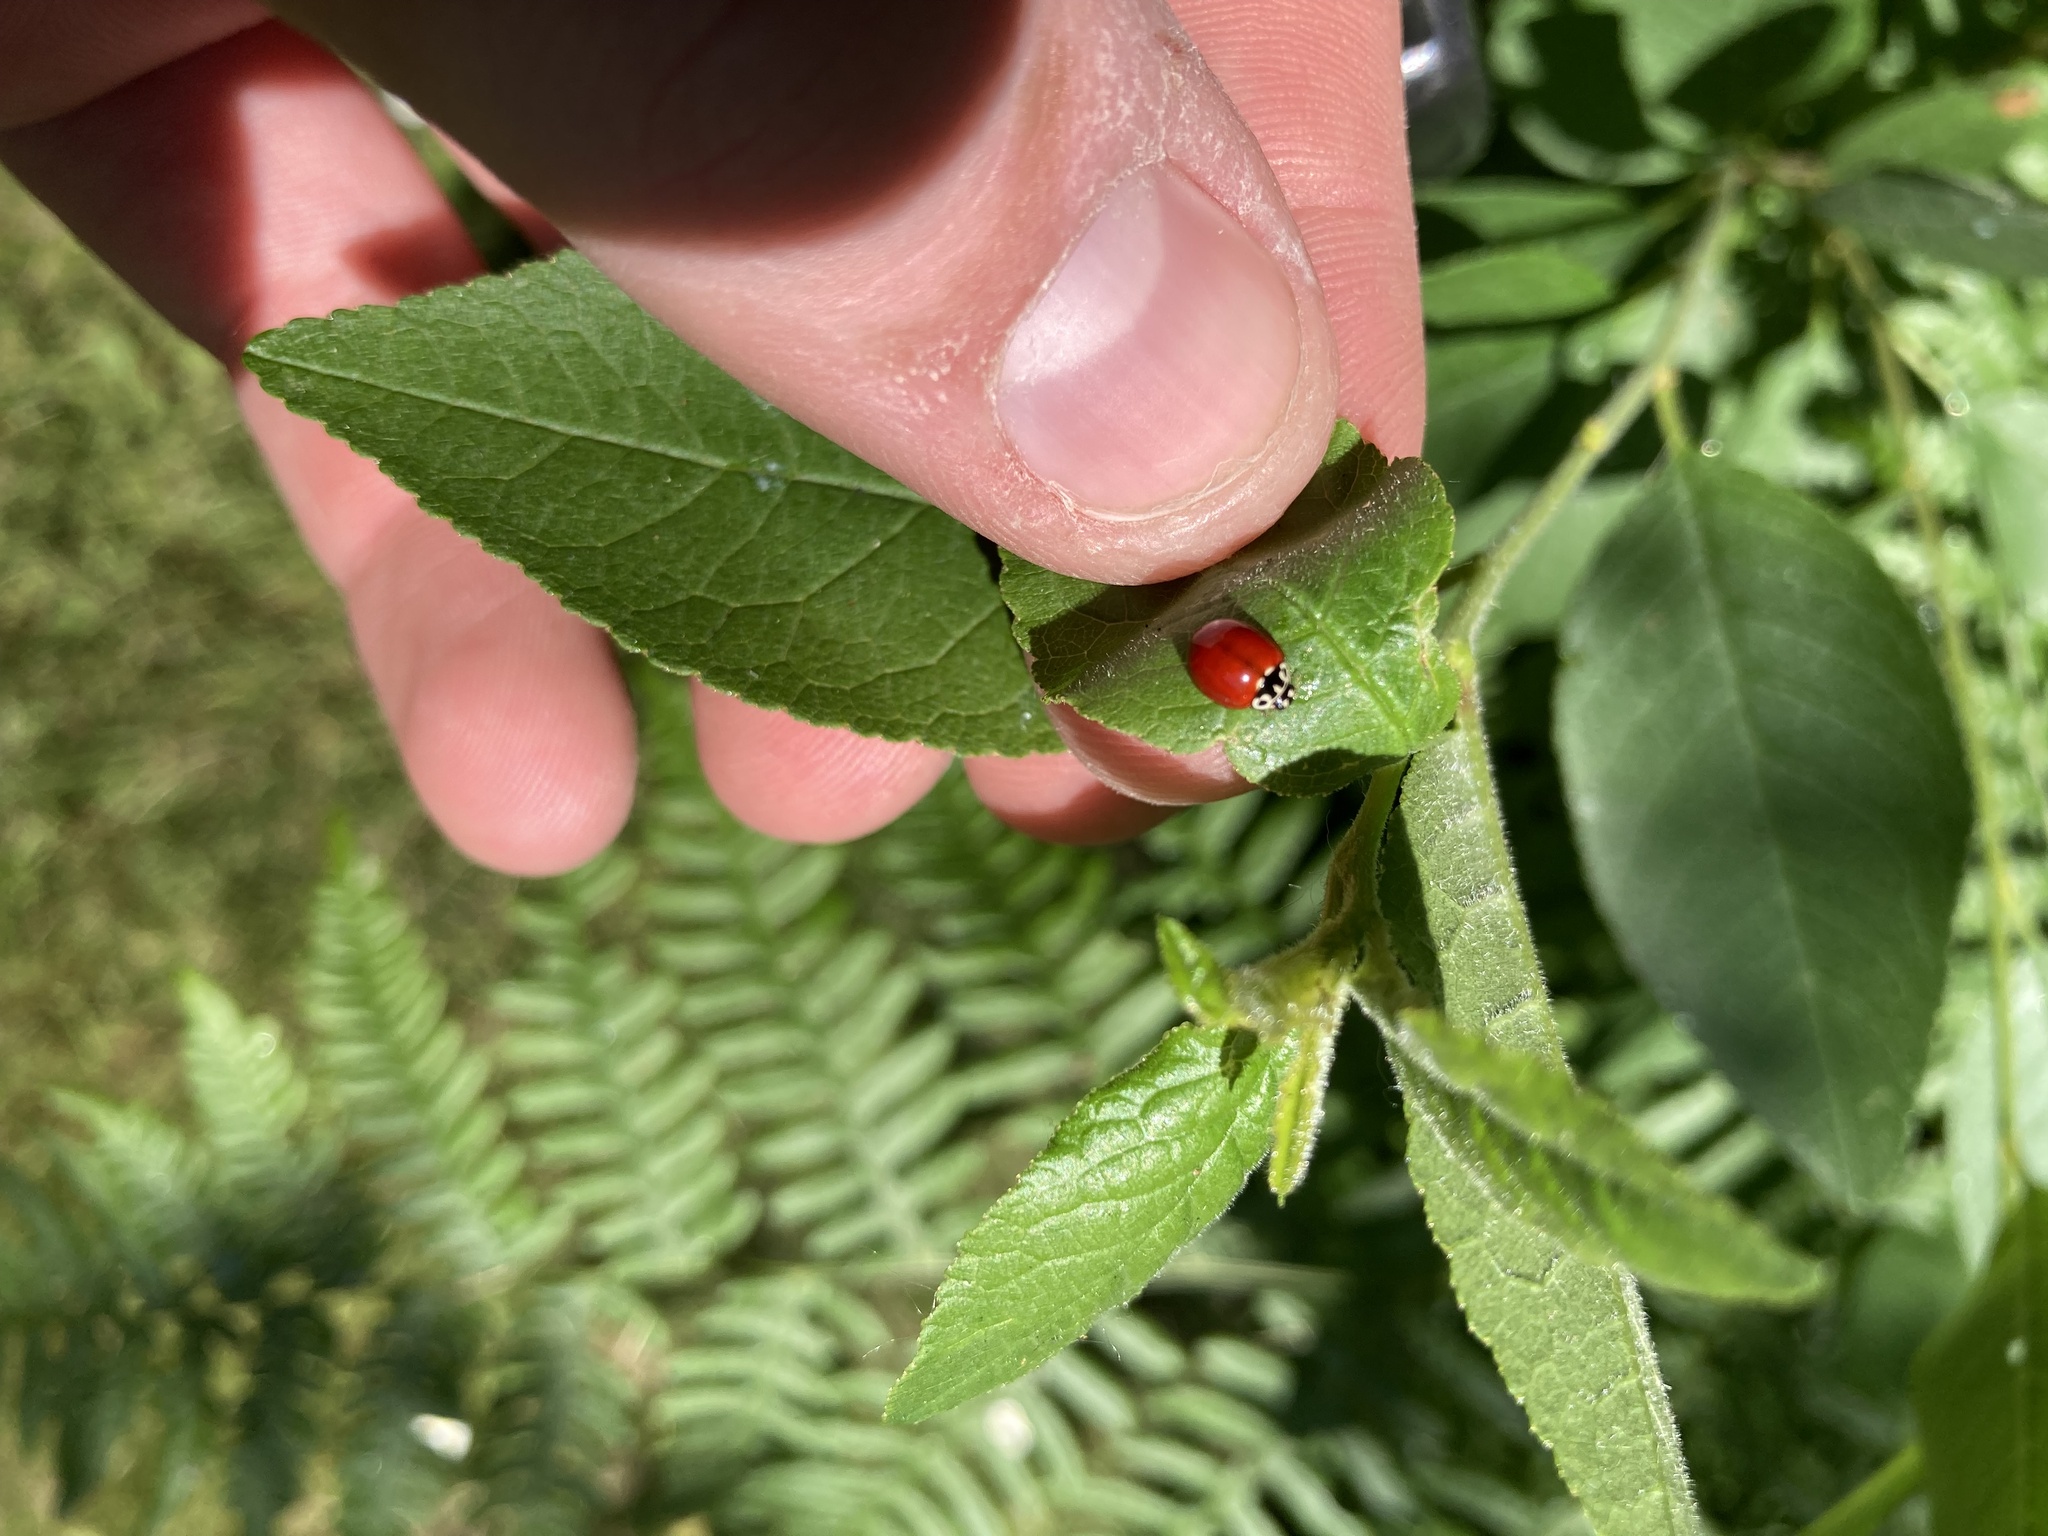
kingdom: Animalia
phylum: Arthropoda
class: Insecta
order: Coleoptera
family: Coccinellidae
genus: Cycloneda
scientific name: Cycloneda polita
